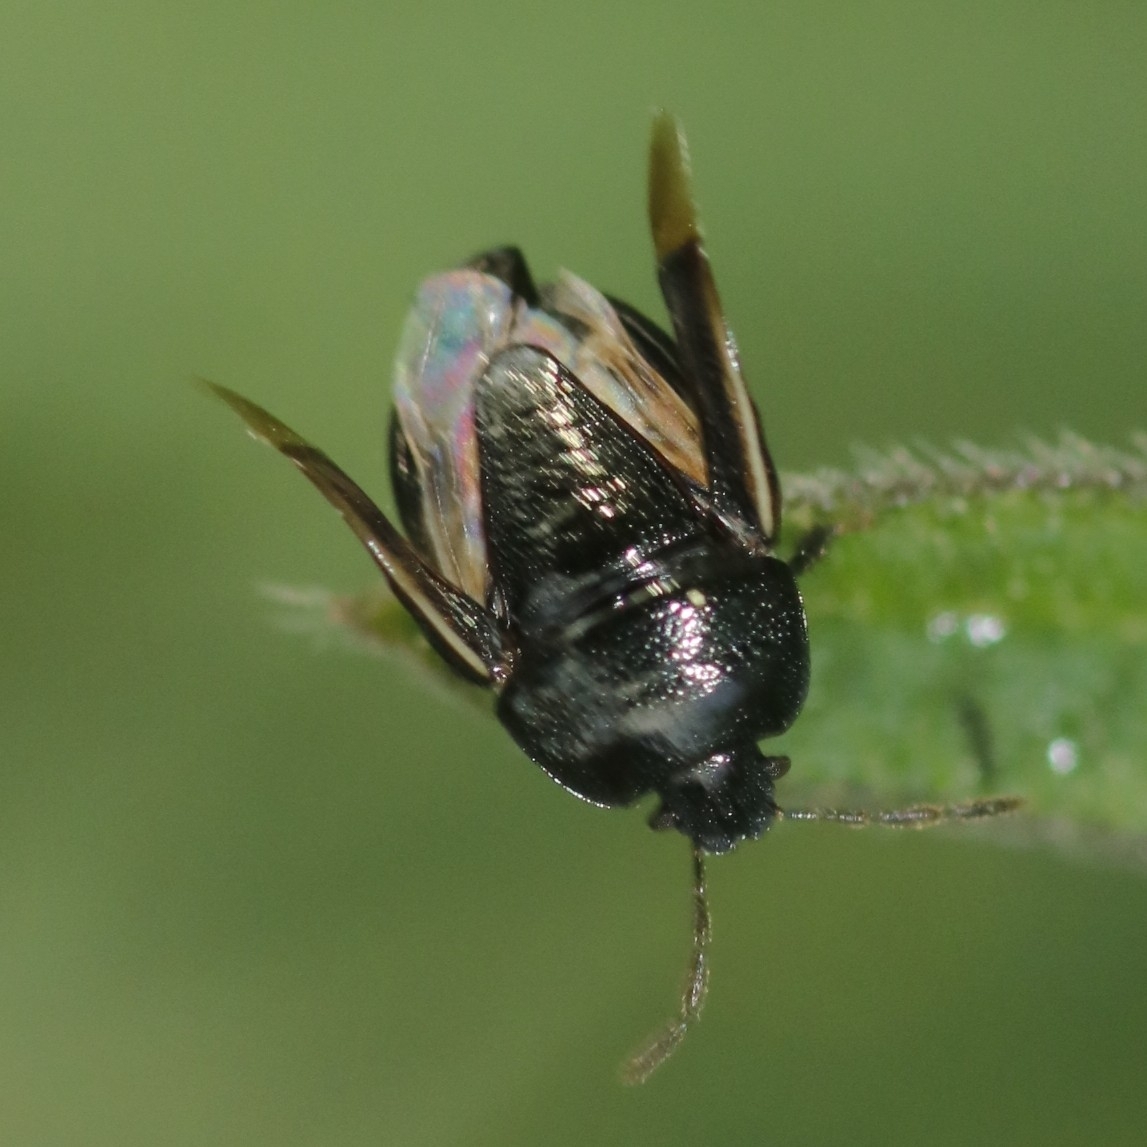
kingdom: Animalia
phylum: Arthropoda
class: Insecta
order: Hemiptera
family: Cydnidae
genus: Legnotus
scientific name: Legnotus limbosus
